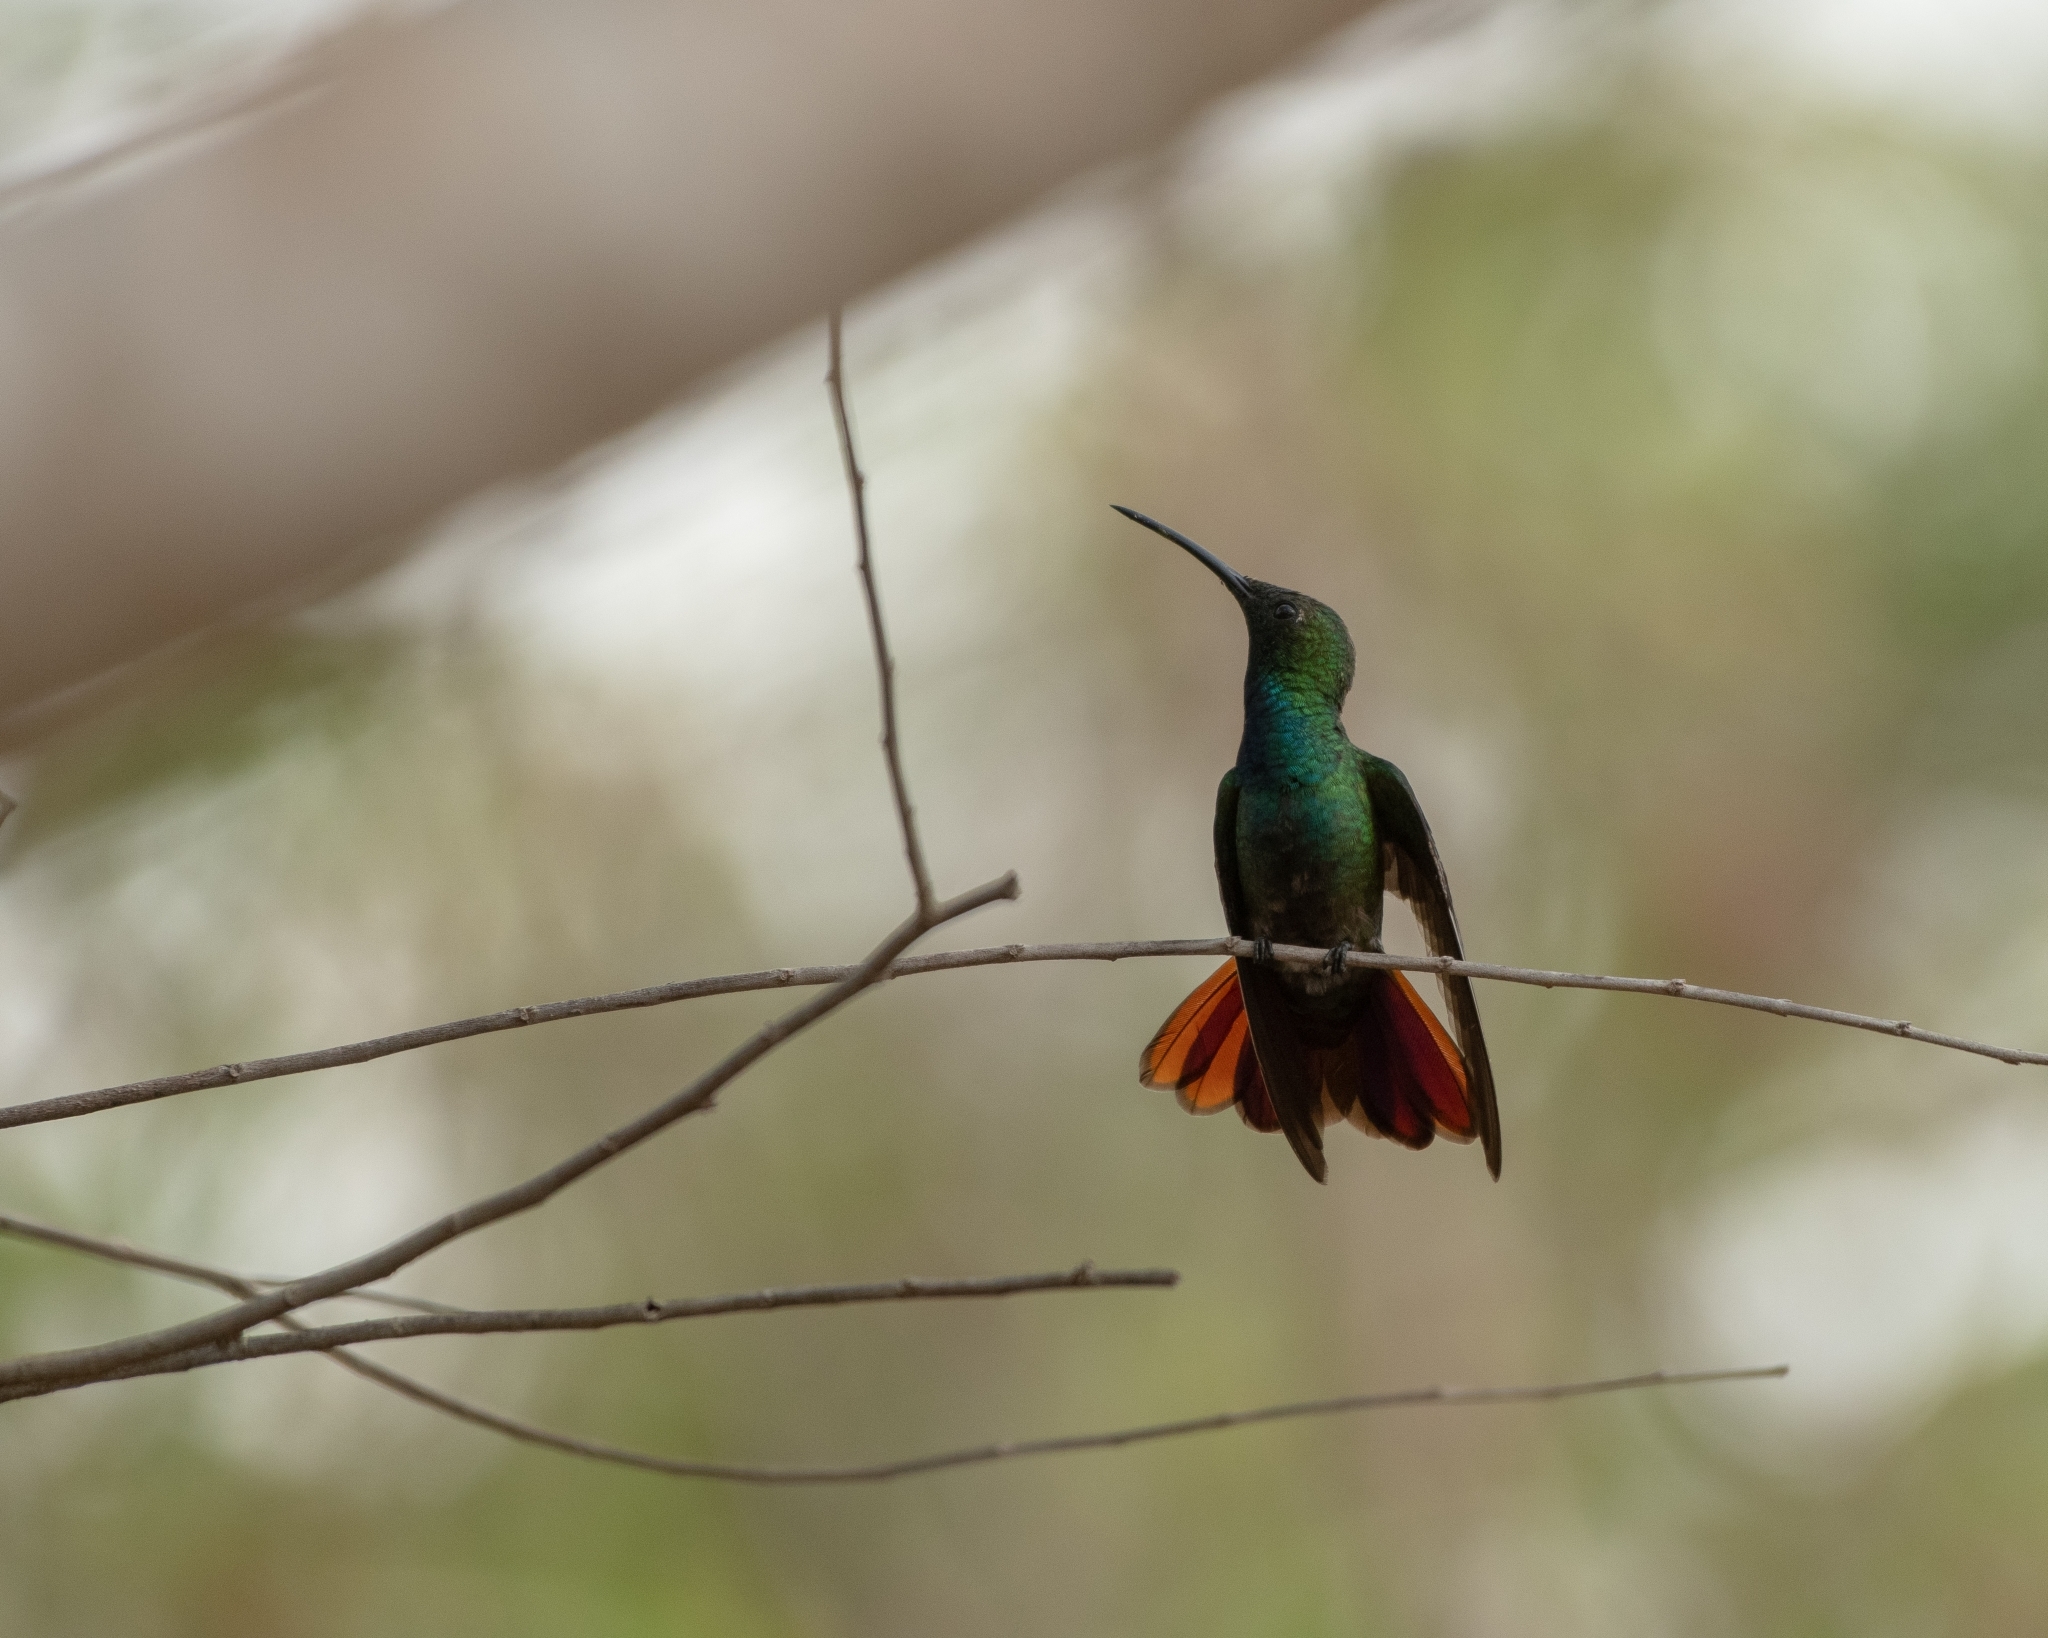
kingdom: Animalia
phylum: Chordata
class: Aves
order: Apodiformes
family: Trochilidae
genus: Anthracothorax
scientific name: Anthracothorax prevostii
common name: Green-breasted mango
